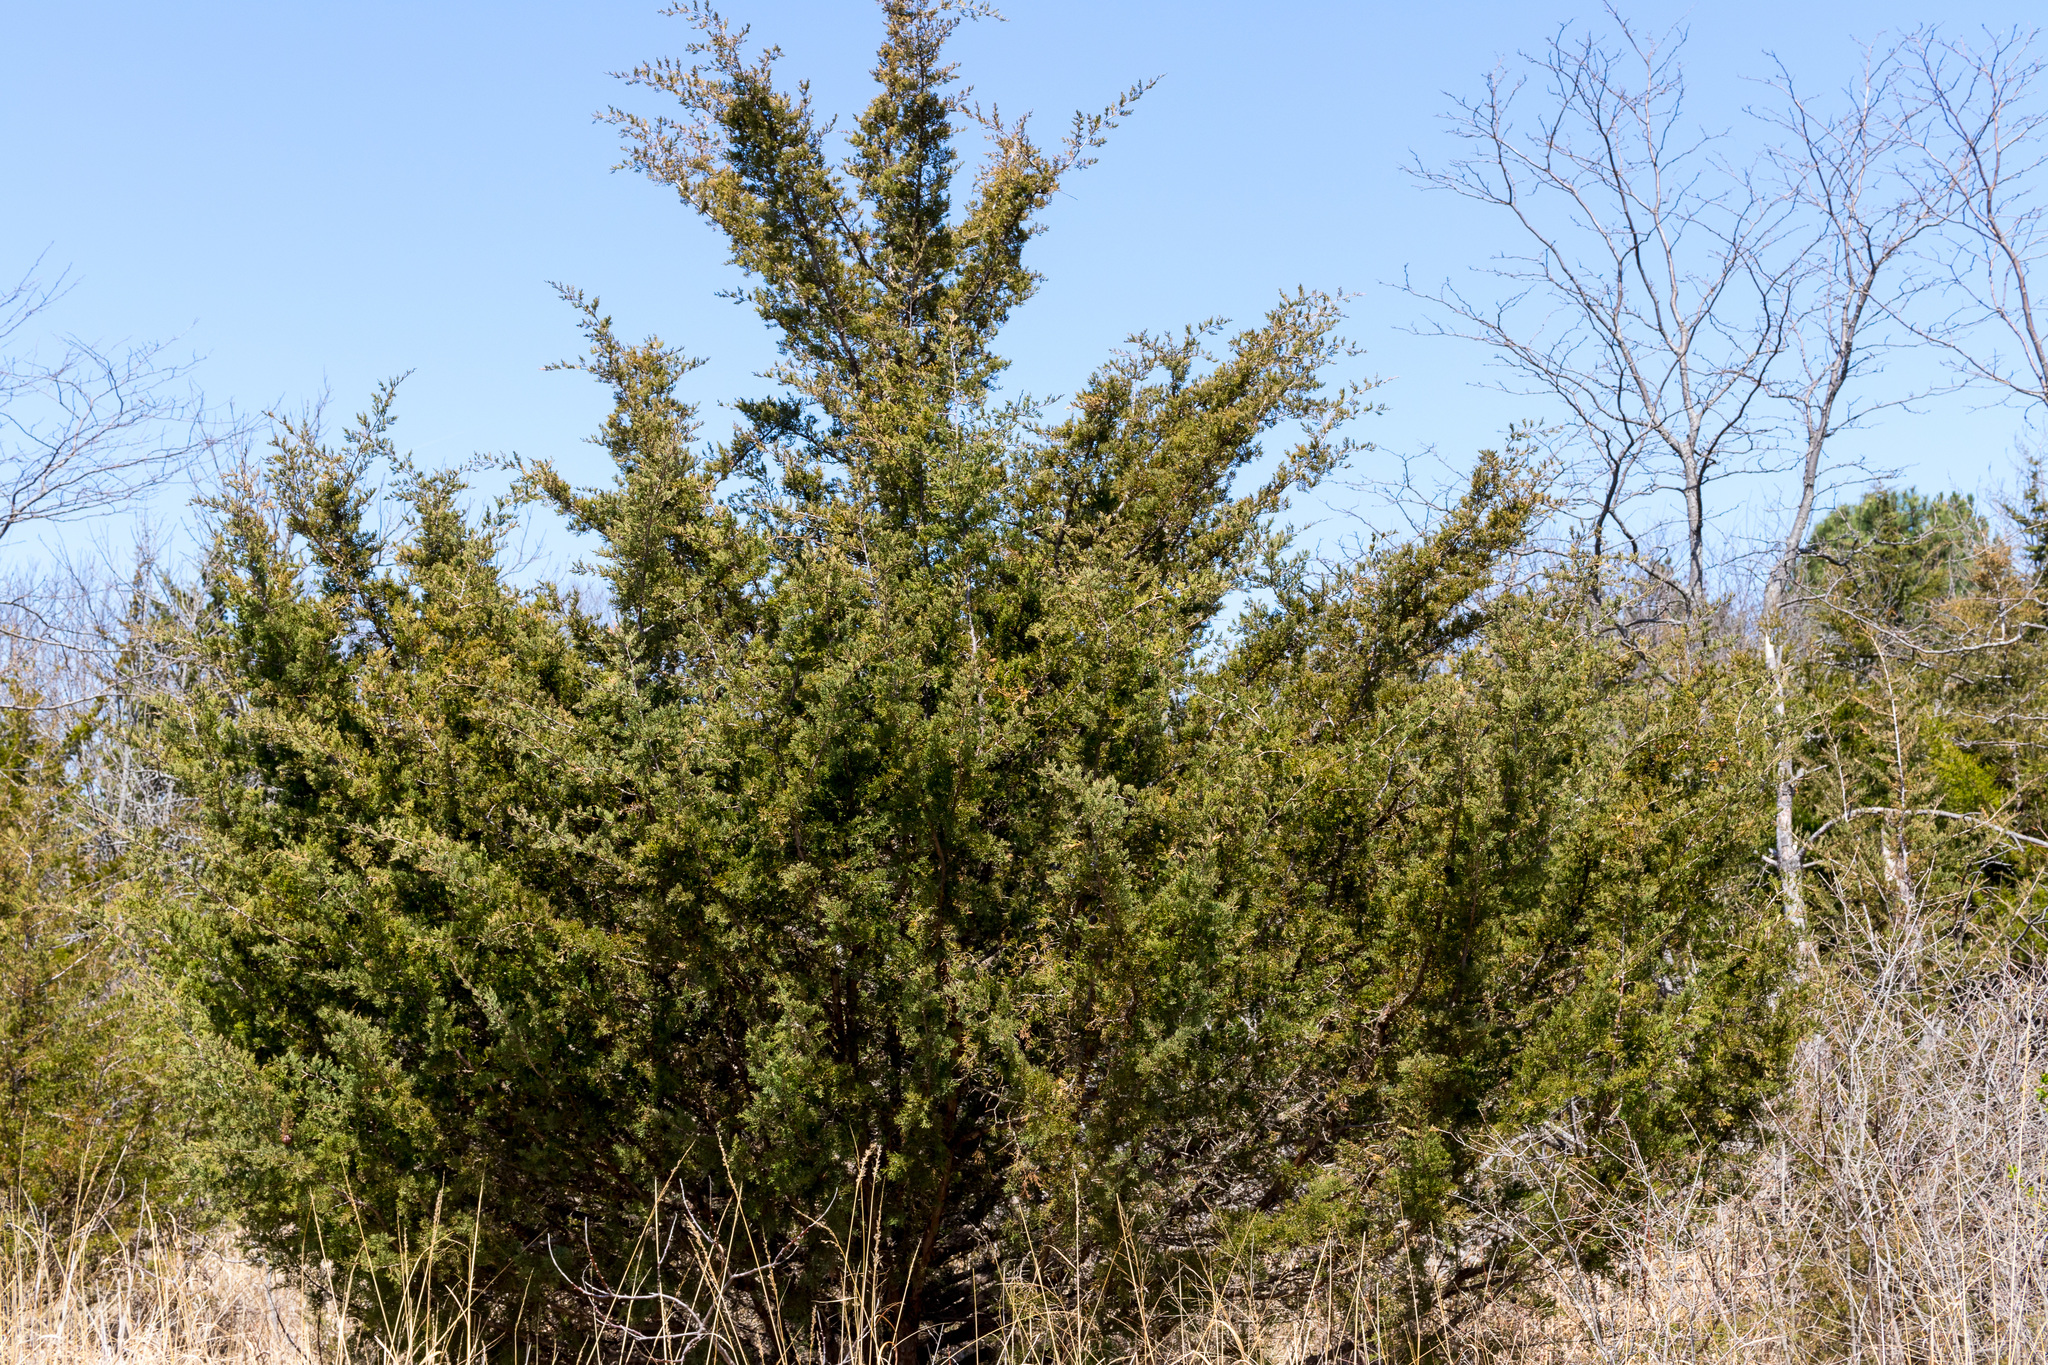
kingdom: Plantae
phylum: Tracheophyta
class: Pinopsida
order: Pinales
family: Cupressaceae
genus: Juniperus
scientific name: Juniperus virginiana
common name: Red juniper
